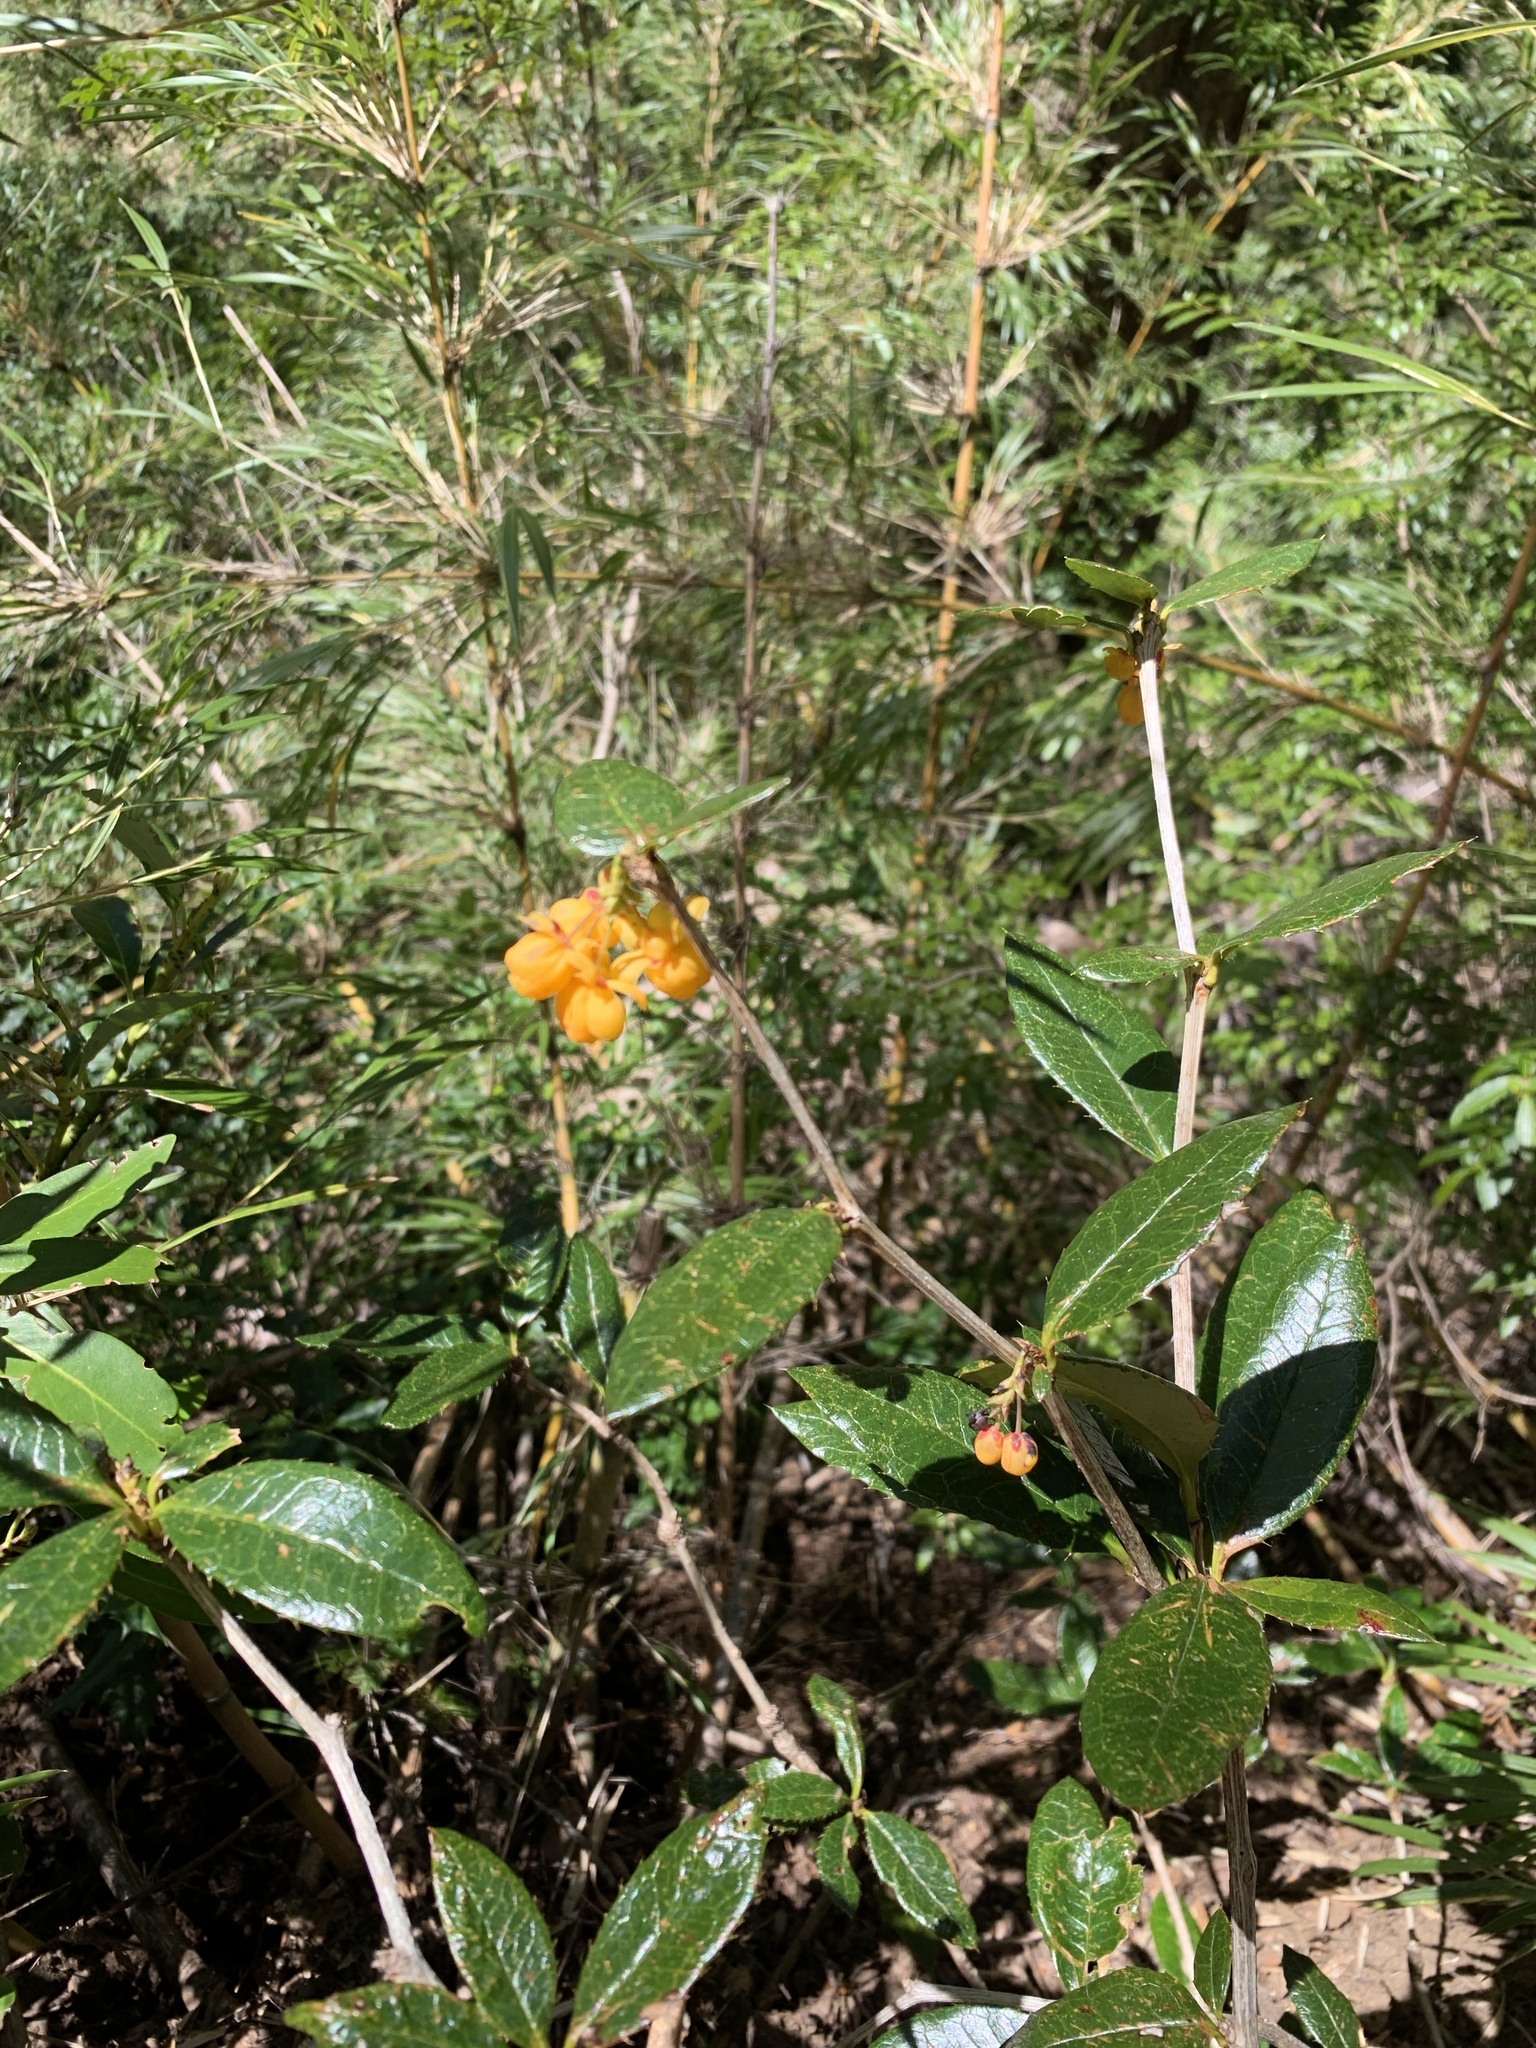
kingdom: Plantae
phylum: Tracheophyta
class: Magnoliopsida
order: Ranunculales
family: Berberidaceae
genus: Berberis
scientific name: Berberis pseudoilicifolia
